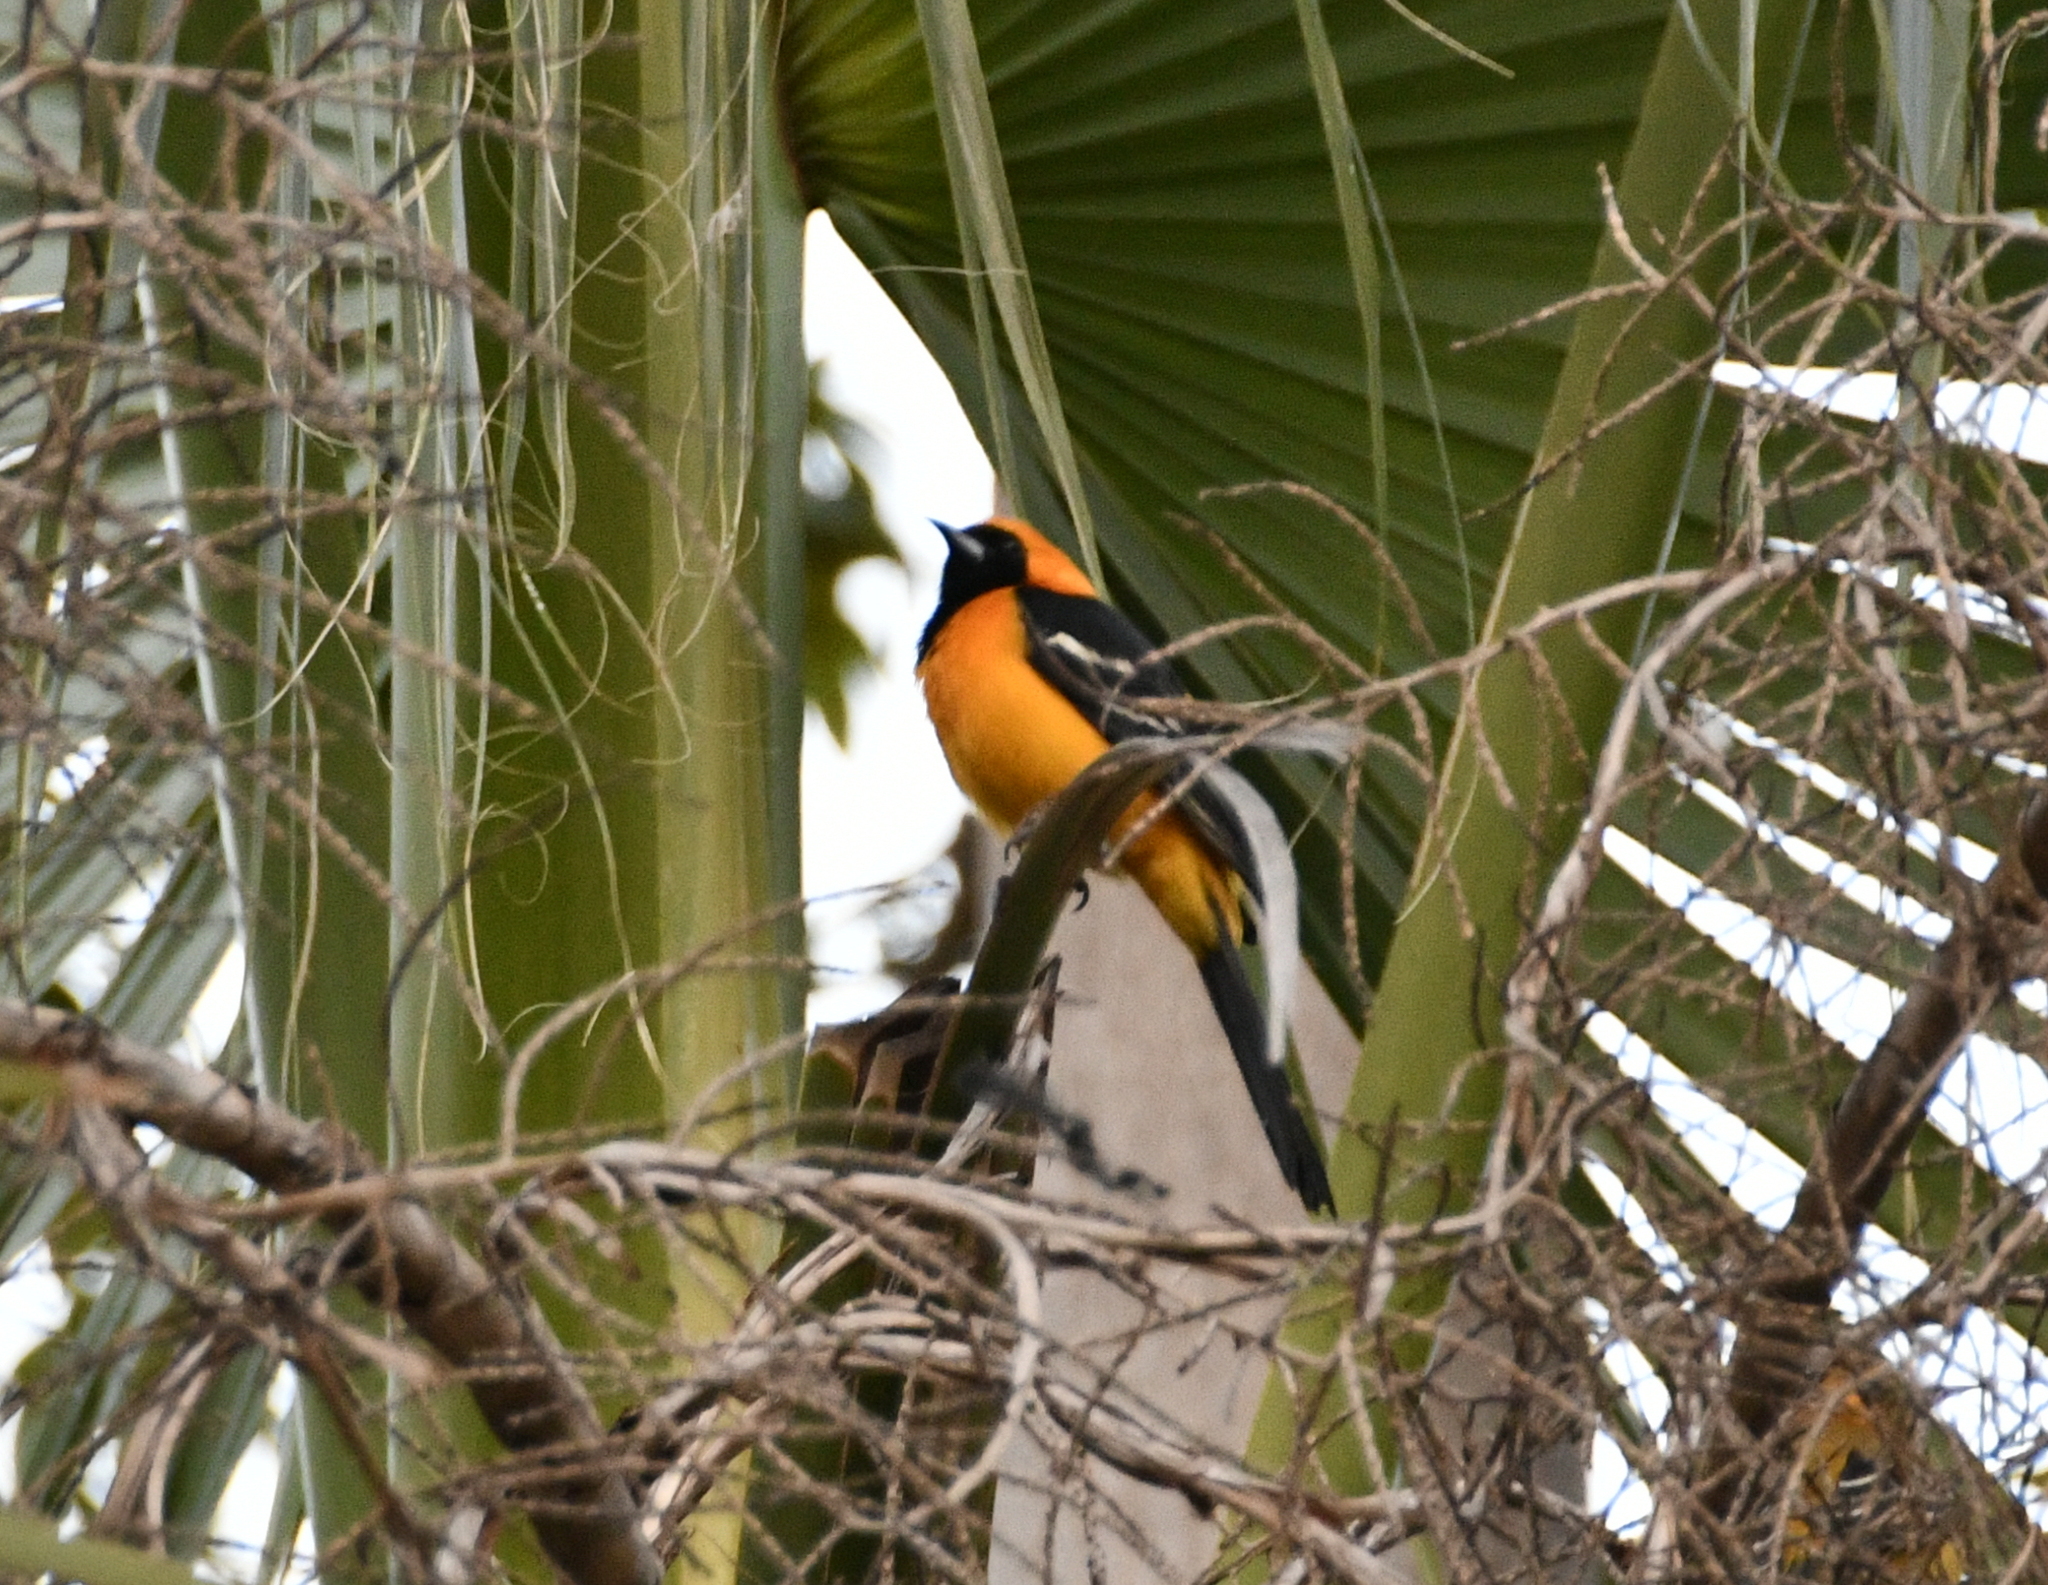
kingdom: Animalia
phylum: Chordata
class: Aves
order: Passeriformes
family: Icteridae
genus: Icterus
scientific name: Icterus cucullatus
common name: Hooded oriole
